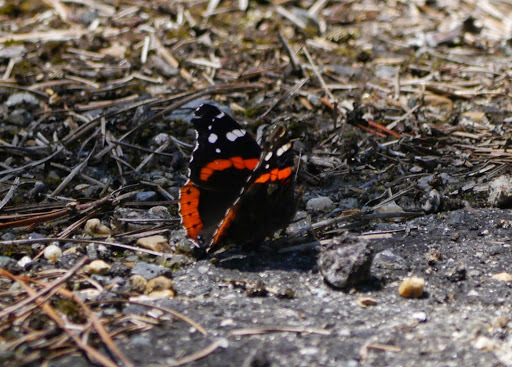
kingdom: Animalia
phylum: Arthropoda
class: Insecta
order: Lepidoptera
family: Nymphalidae
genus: Vanessa
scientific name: Vanessa atalanta
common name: Red admiral
